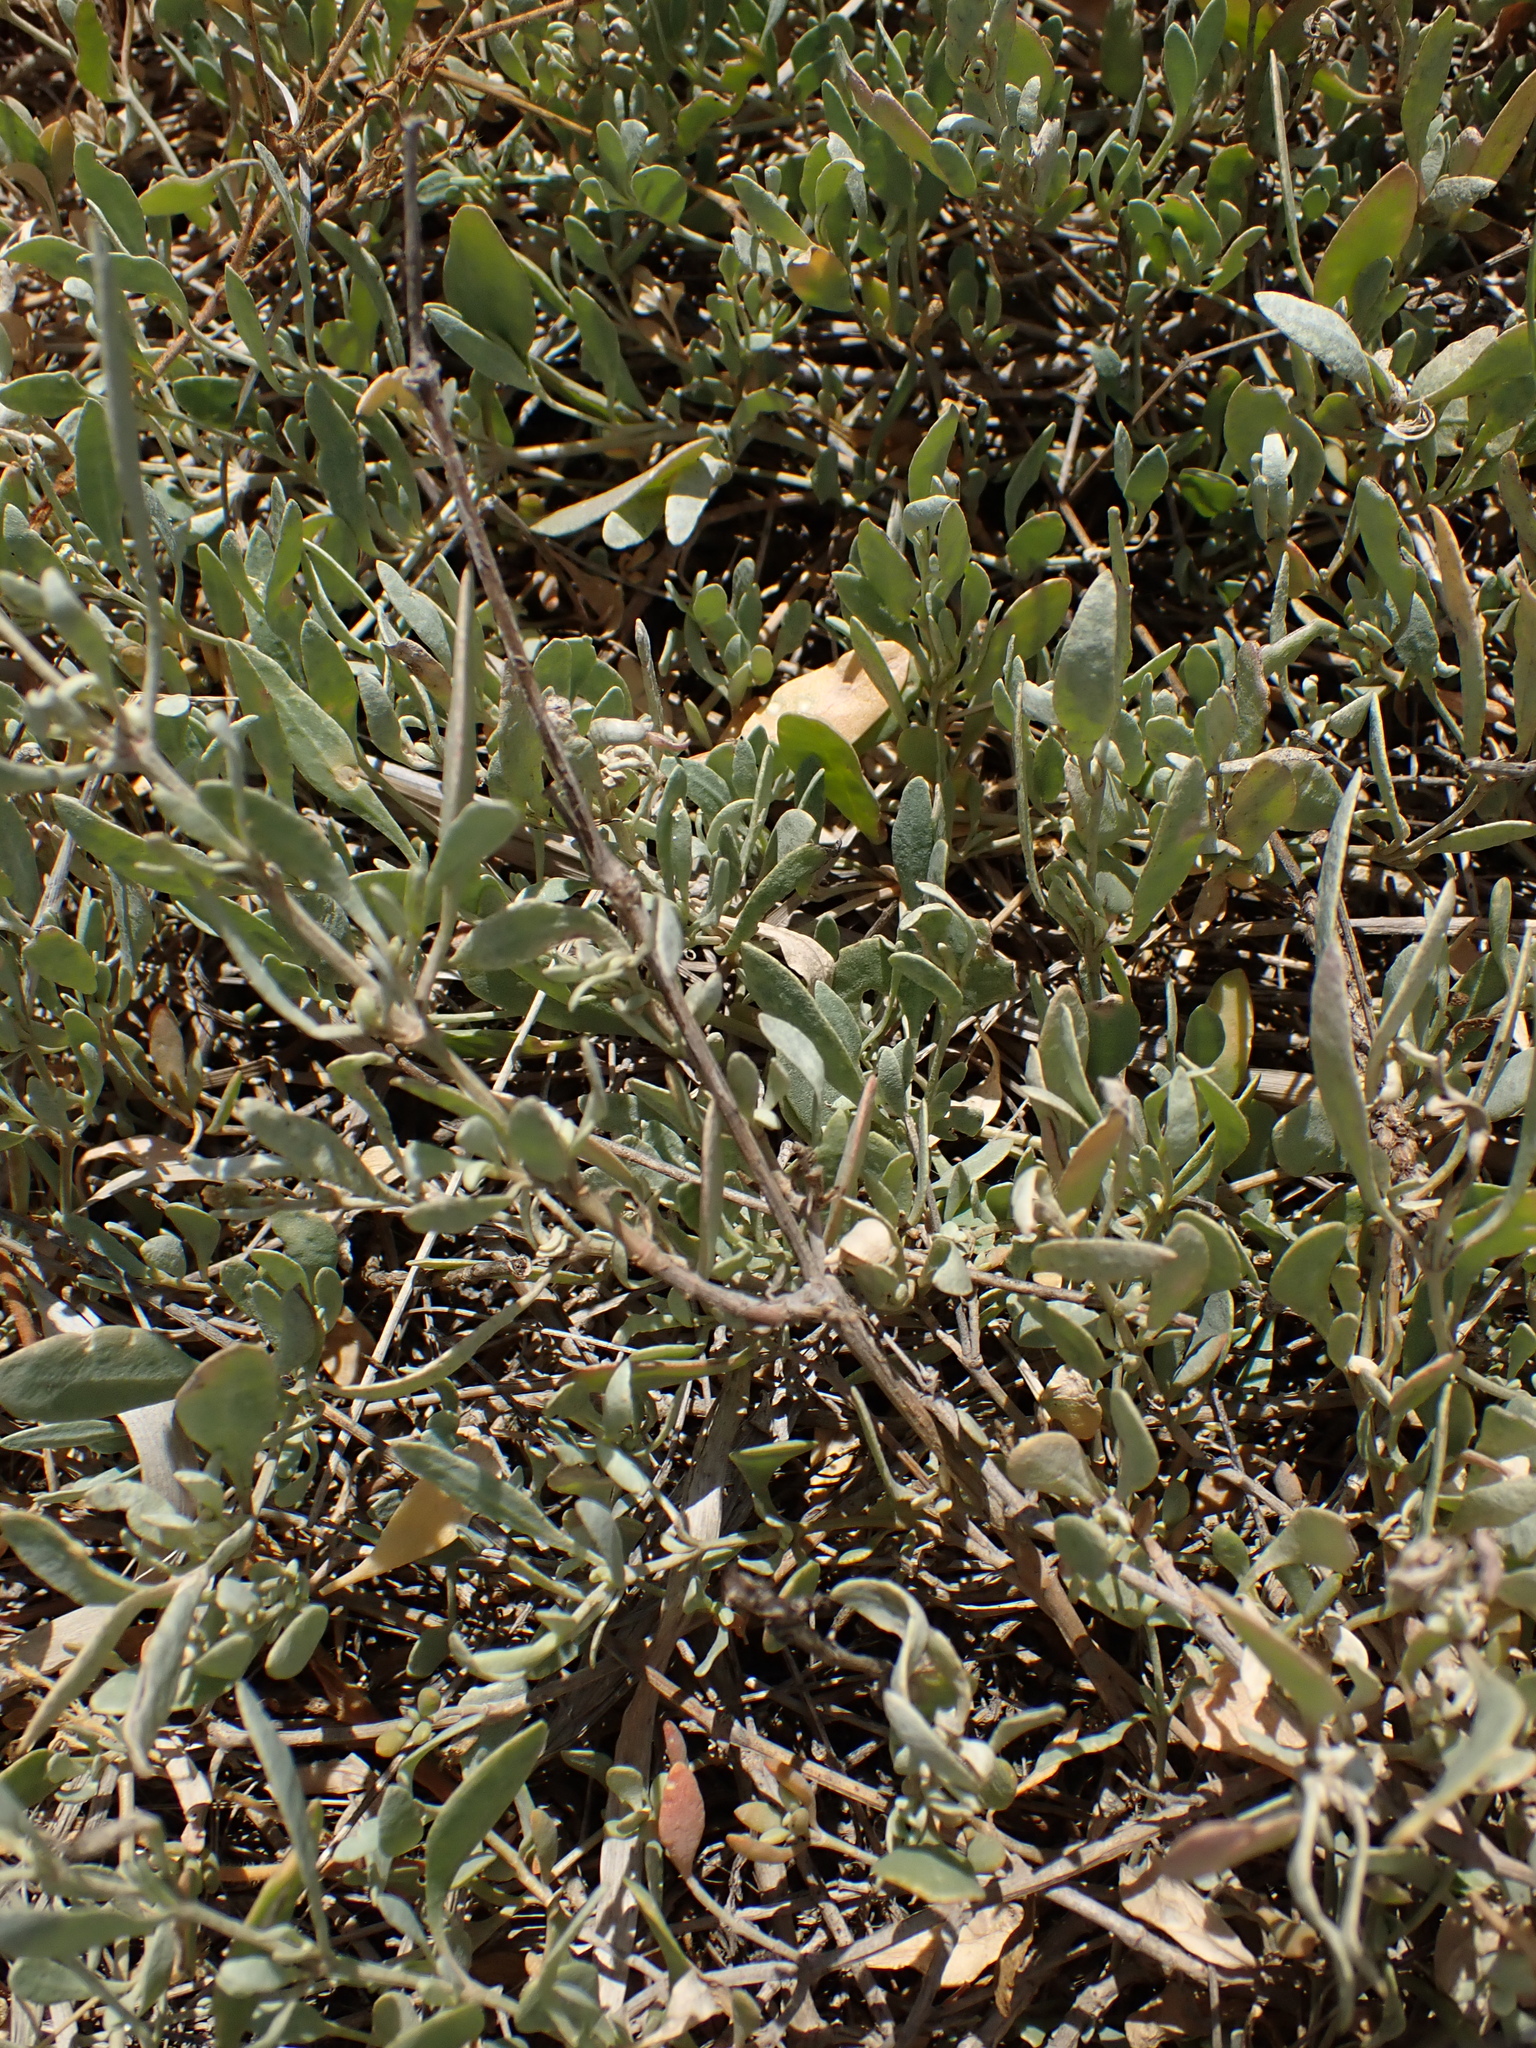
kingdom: Plantae
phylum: Tracheophyta
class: Magnoliopsida
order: Caryophyllales
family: Amaranthaceae
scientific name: Amaranthaceae
